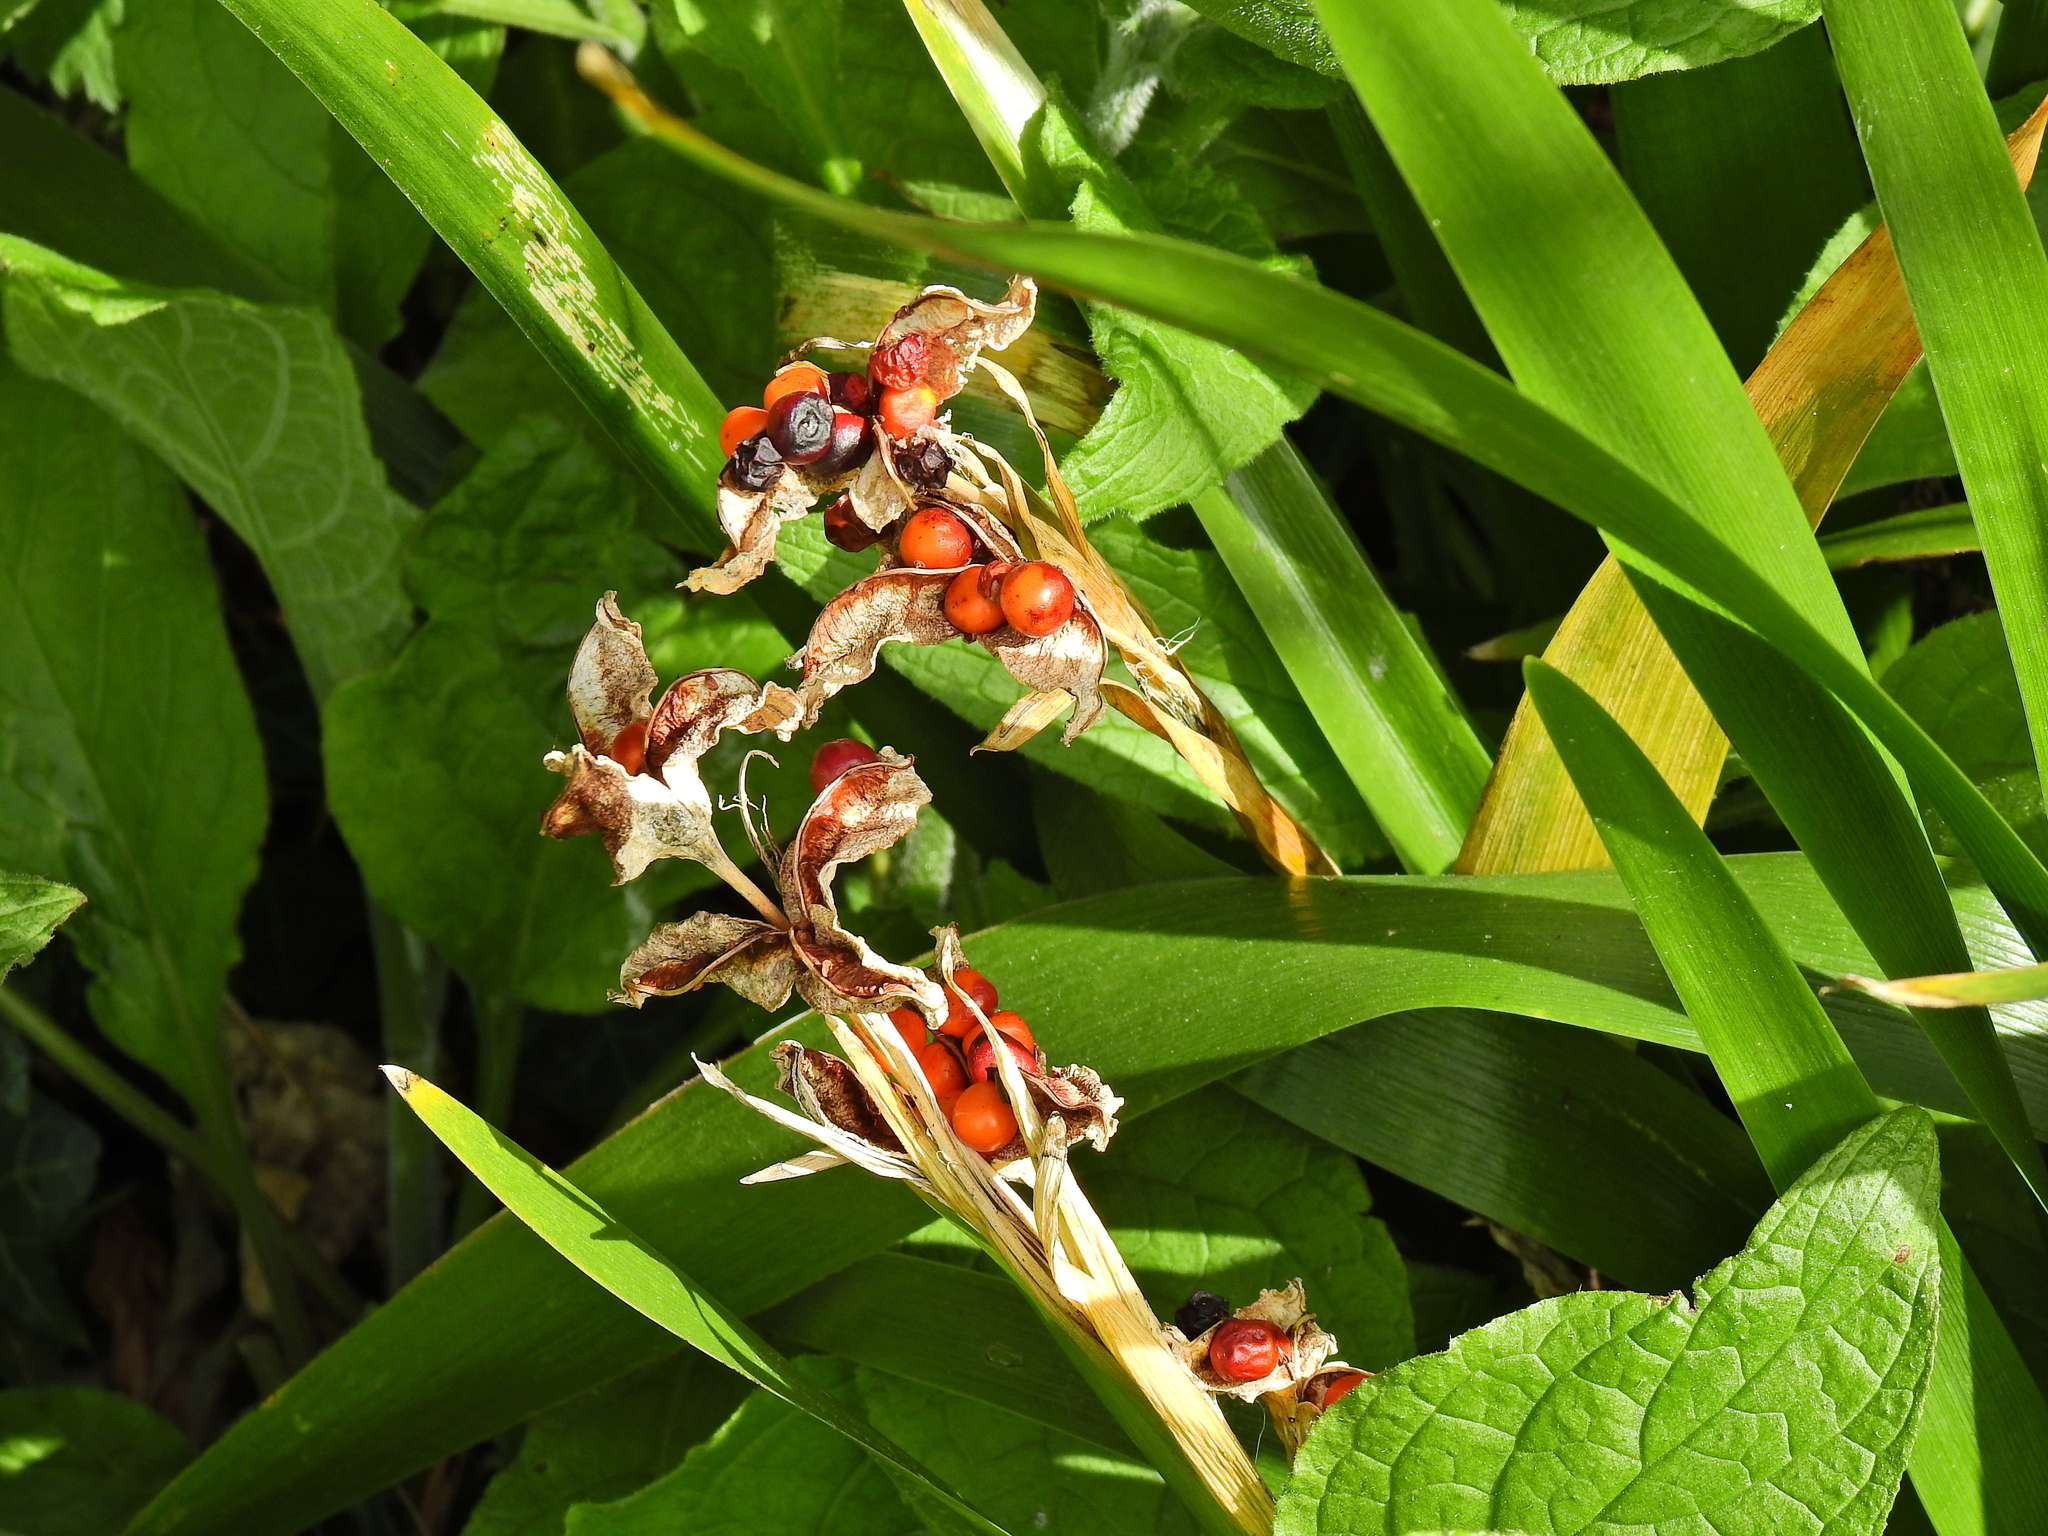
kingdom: Plantae
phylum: Tracheophyta
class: Liliopsida
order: Asparagales
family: Iridaceae
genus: Iris
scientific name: Iris foetidissima
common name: Stinking iris
